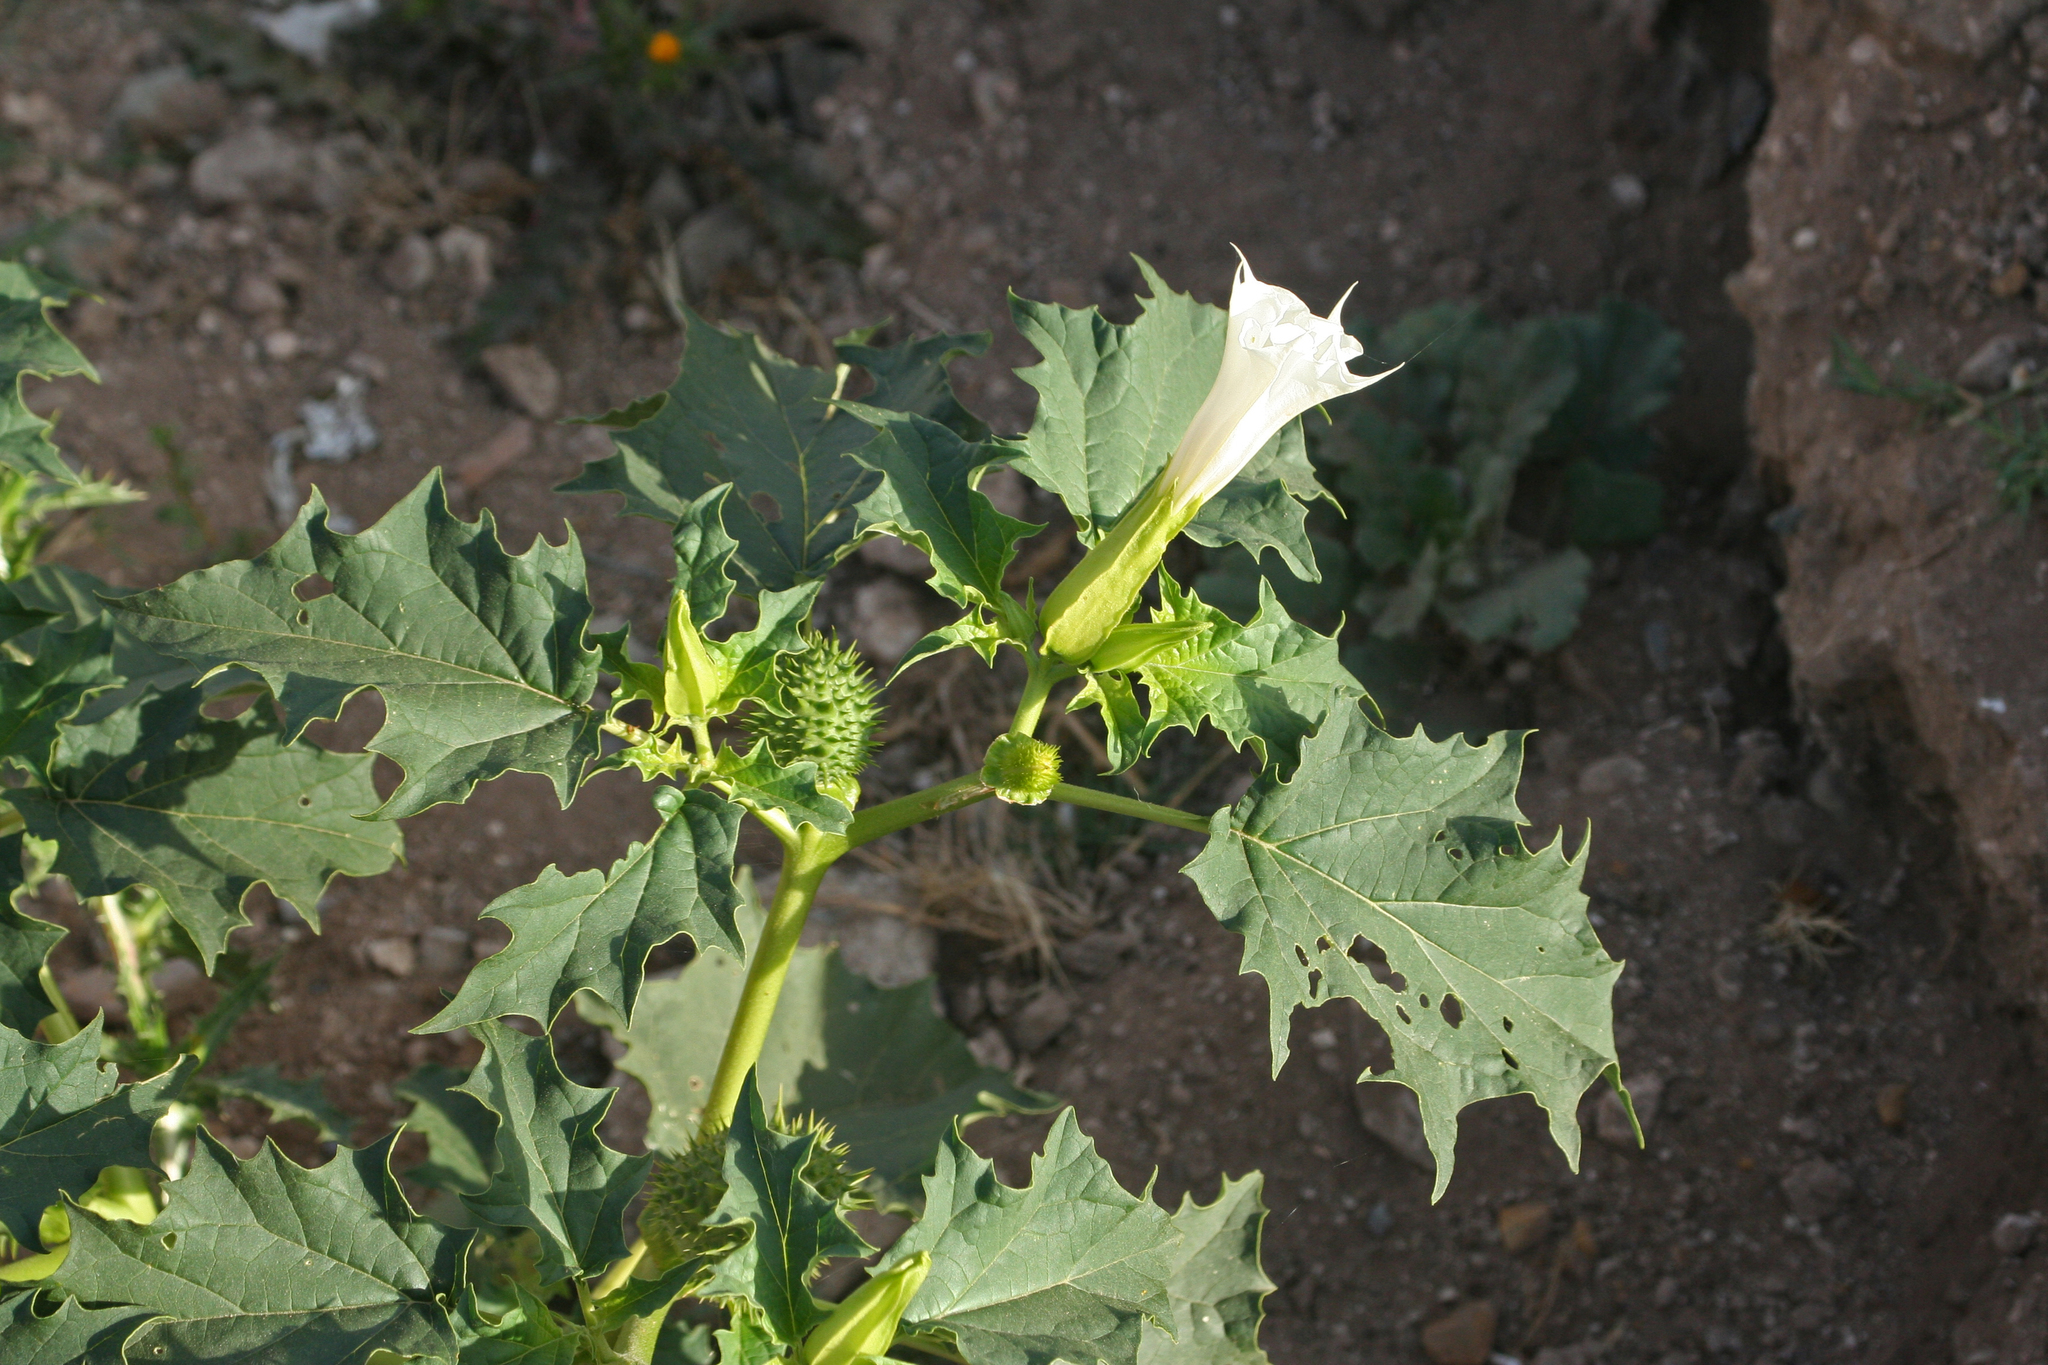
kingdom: Plantae
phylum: Tracheophyta
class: Magnoliopsida
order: Solanales
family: Solanaceae
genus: Datura
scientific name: Datura stramonium
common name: Thorn-apple
